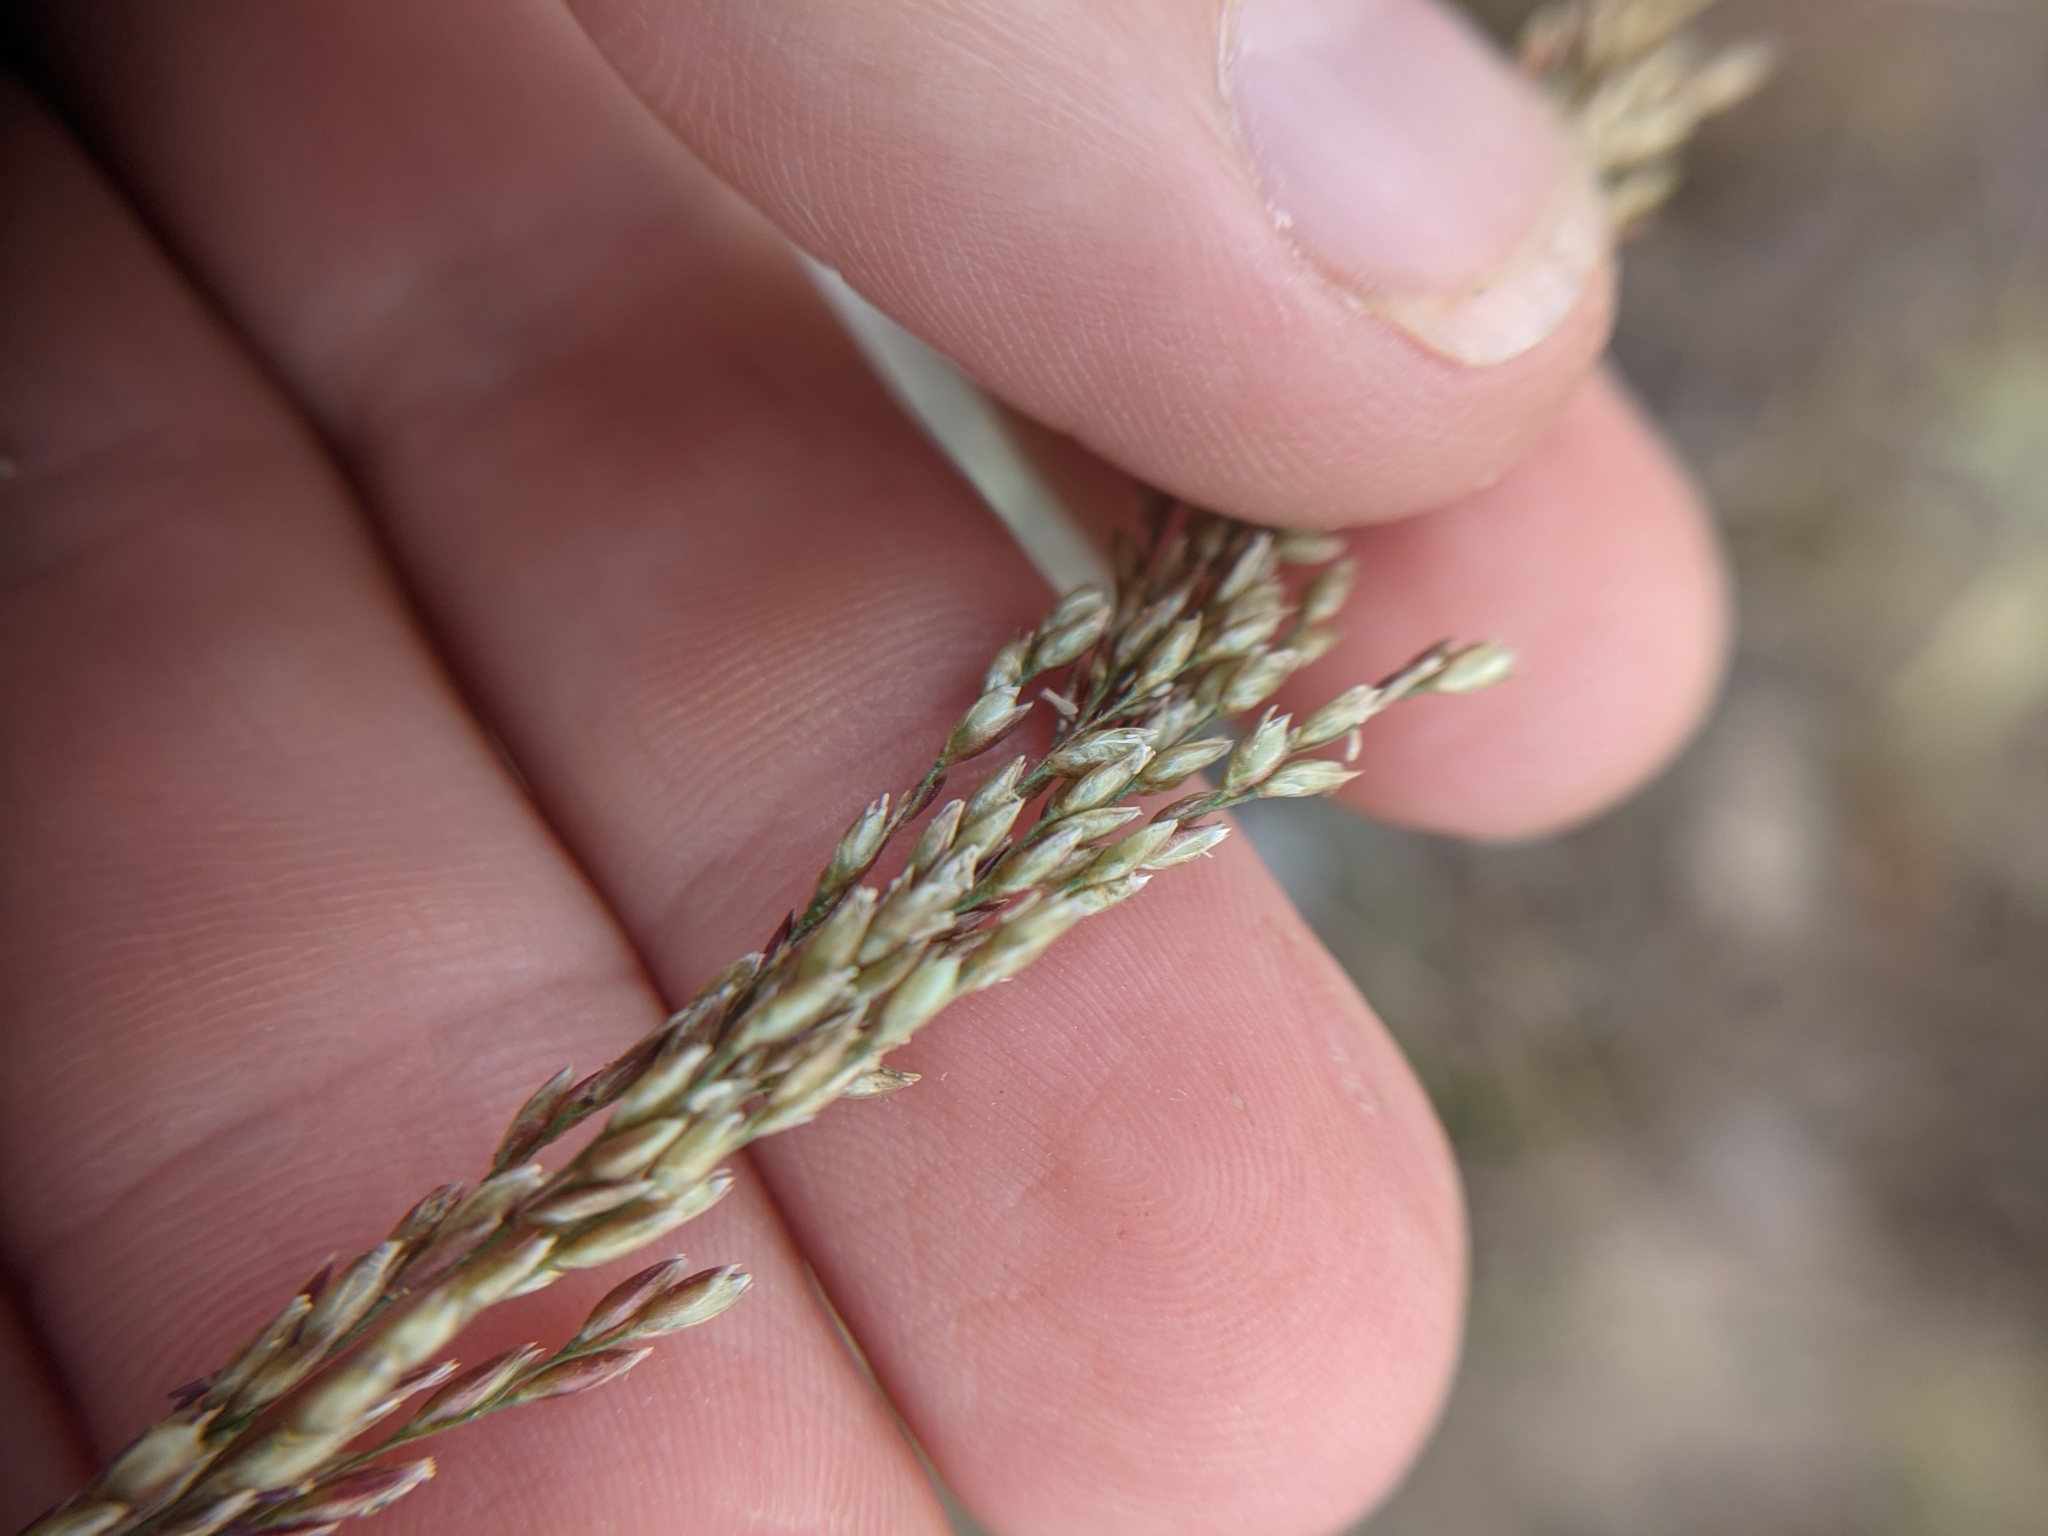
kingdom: Plantae
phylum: Tracheophyta
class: Liliopsida
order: Poales
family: Poaceae
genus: Sporobolus
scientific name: Sporobolus purpurascens
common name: Purple dropseed
